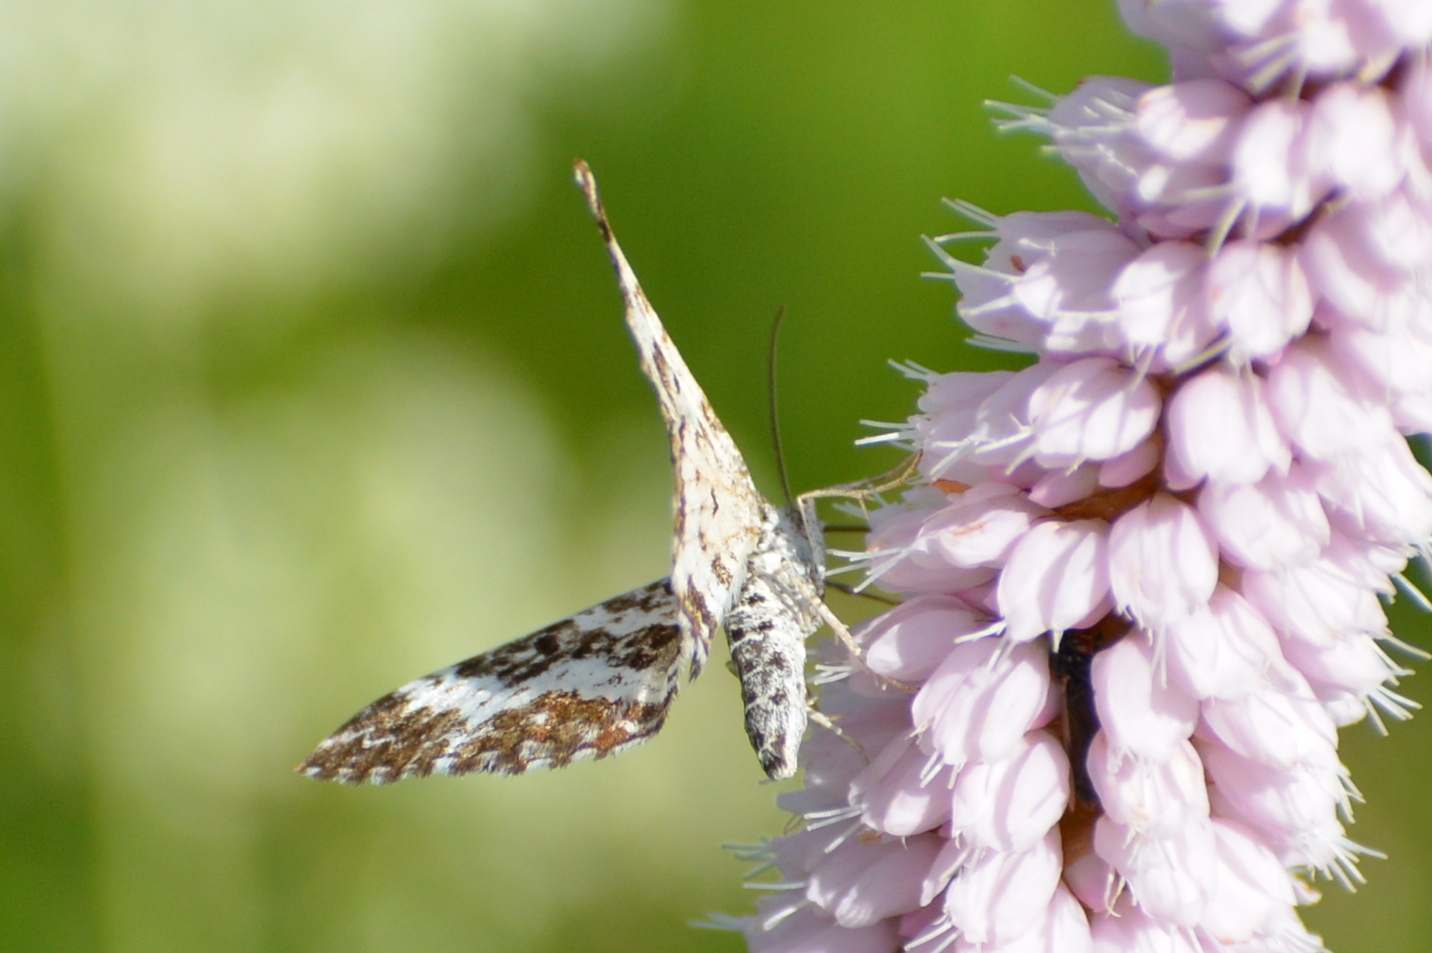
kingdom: Animalia
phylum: Arthropoda
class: Insecta
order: Lepidoptera
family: Geometridae
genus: Epirrhoe
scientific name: Epirrhoe tristata
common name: Small argent & sable
